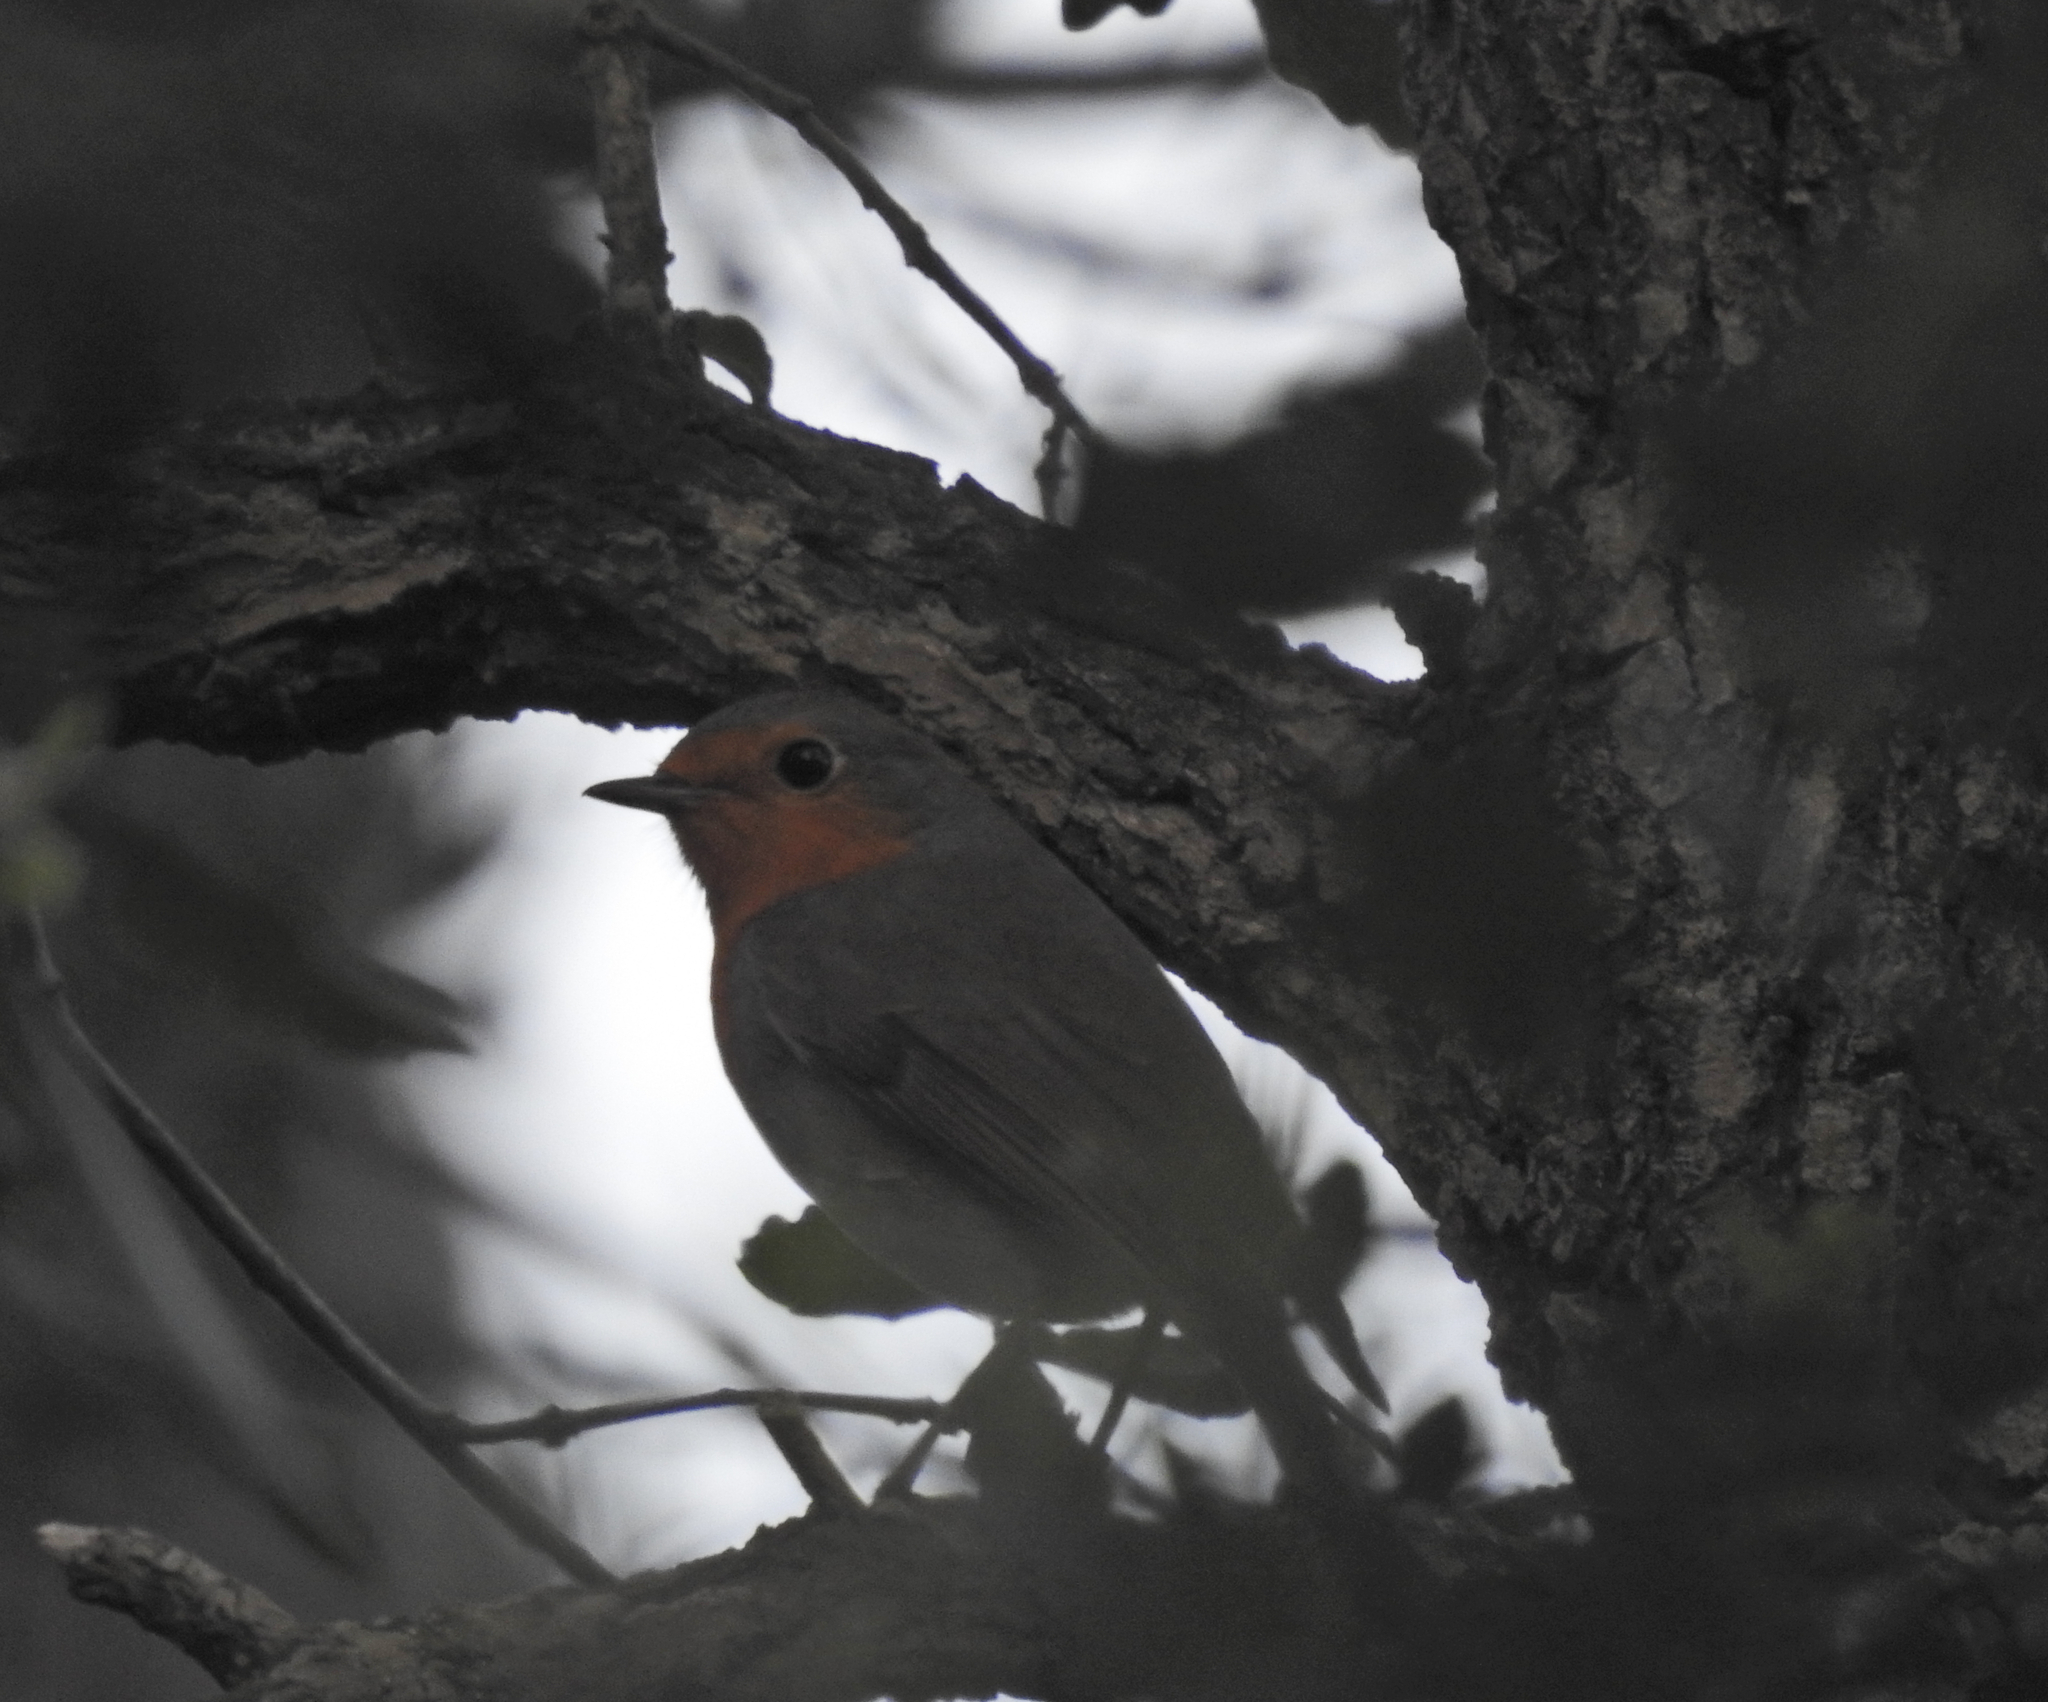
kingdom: Animalia
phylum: Chordata
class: Aves
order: Passeriformes
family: Muscicapidae
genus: Erithacus
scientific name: Erithacus rubecula
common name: European robin
